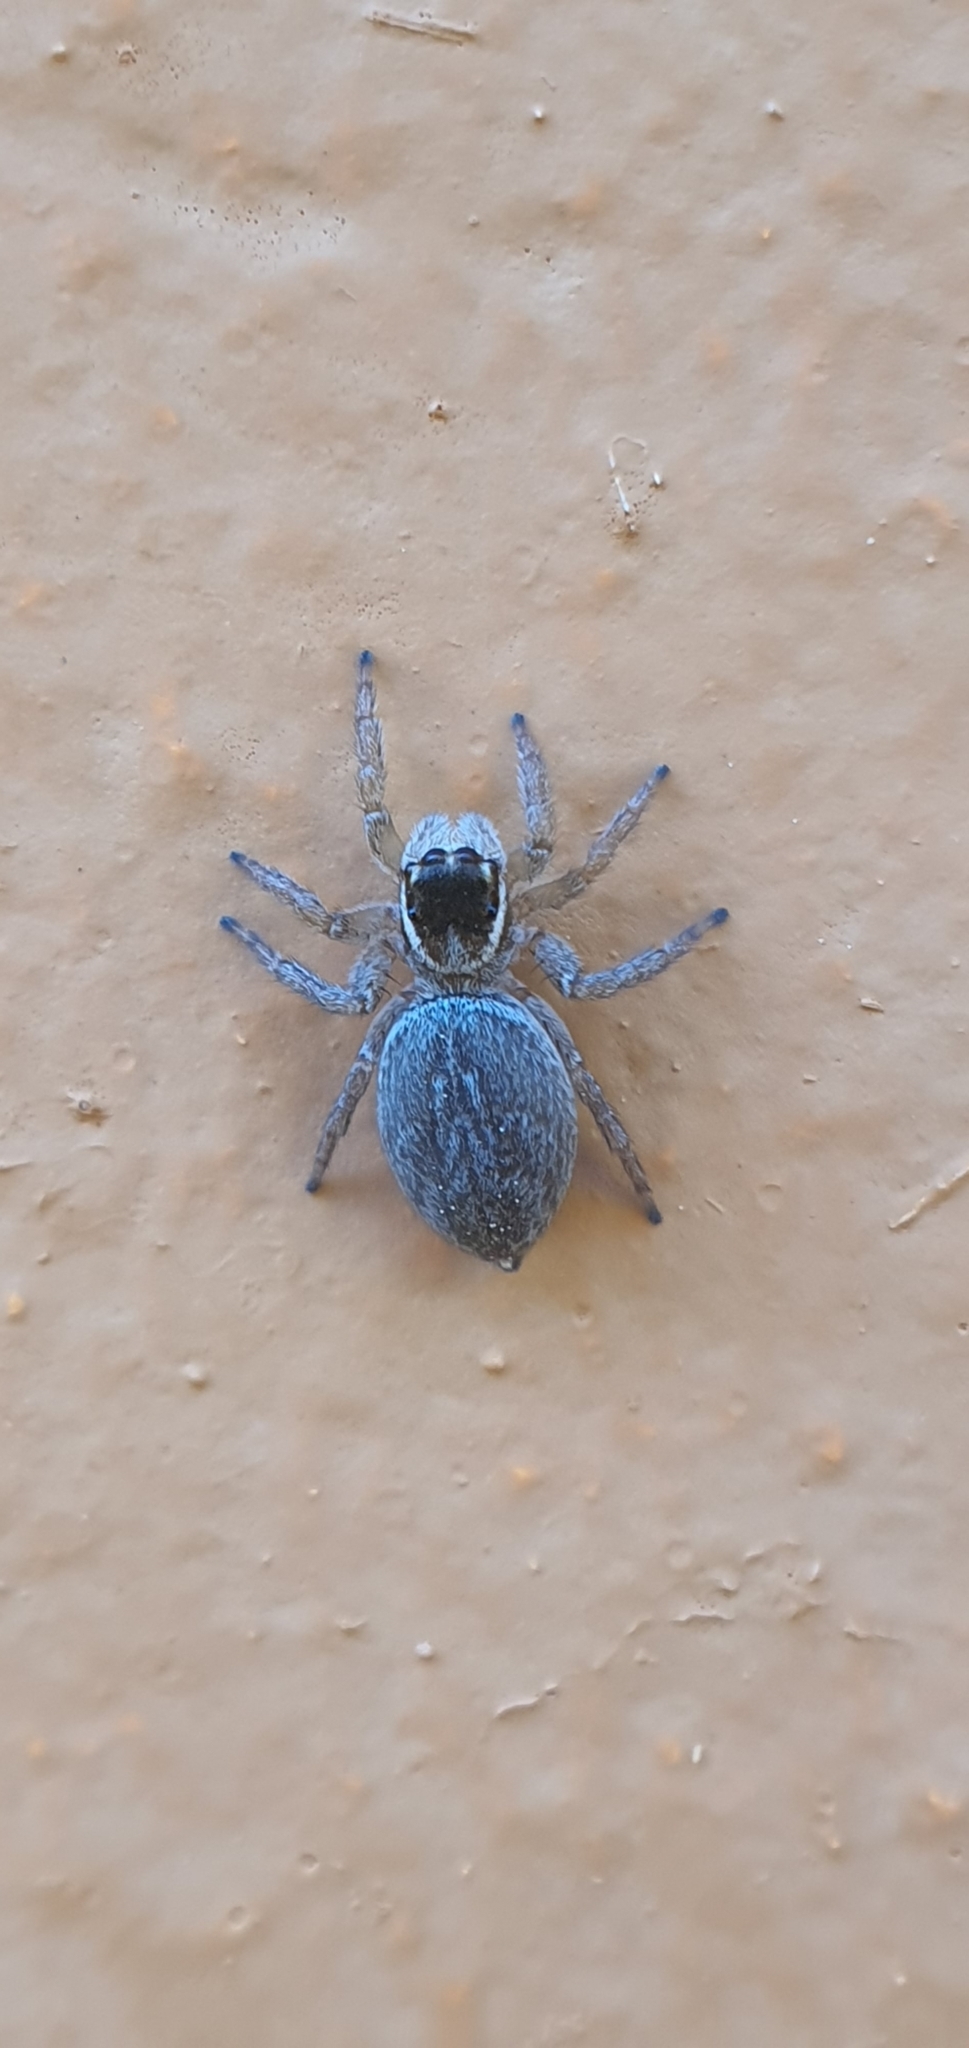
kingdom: Animalia
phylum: Arthropoda
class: Arachnida
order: Araneae
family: Salticidae
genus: Maratus
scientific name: Maratus griseus
